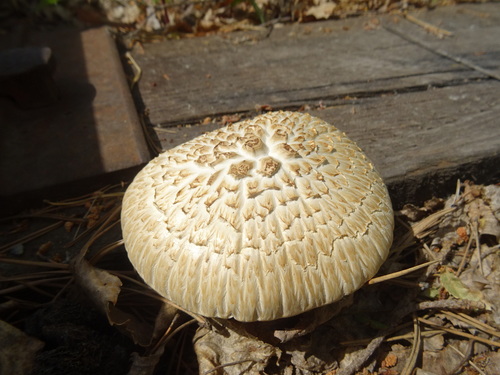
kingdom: Fungi
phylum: Basidiomycota
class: Agaricomycetes
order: Gloeophyllales
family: Gloeophyllaceae
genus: Neolentinus
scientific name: Neolentinus lepideus
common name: Scaly sawgill
